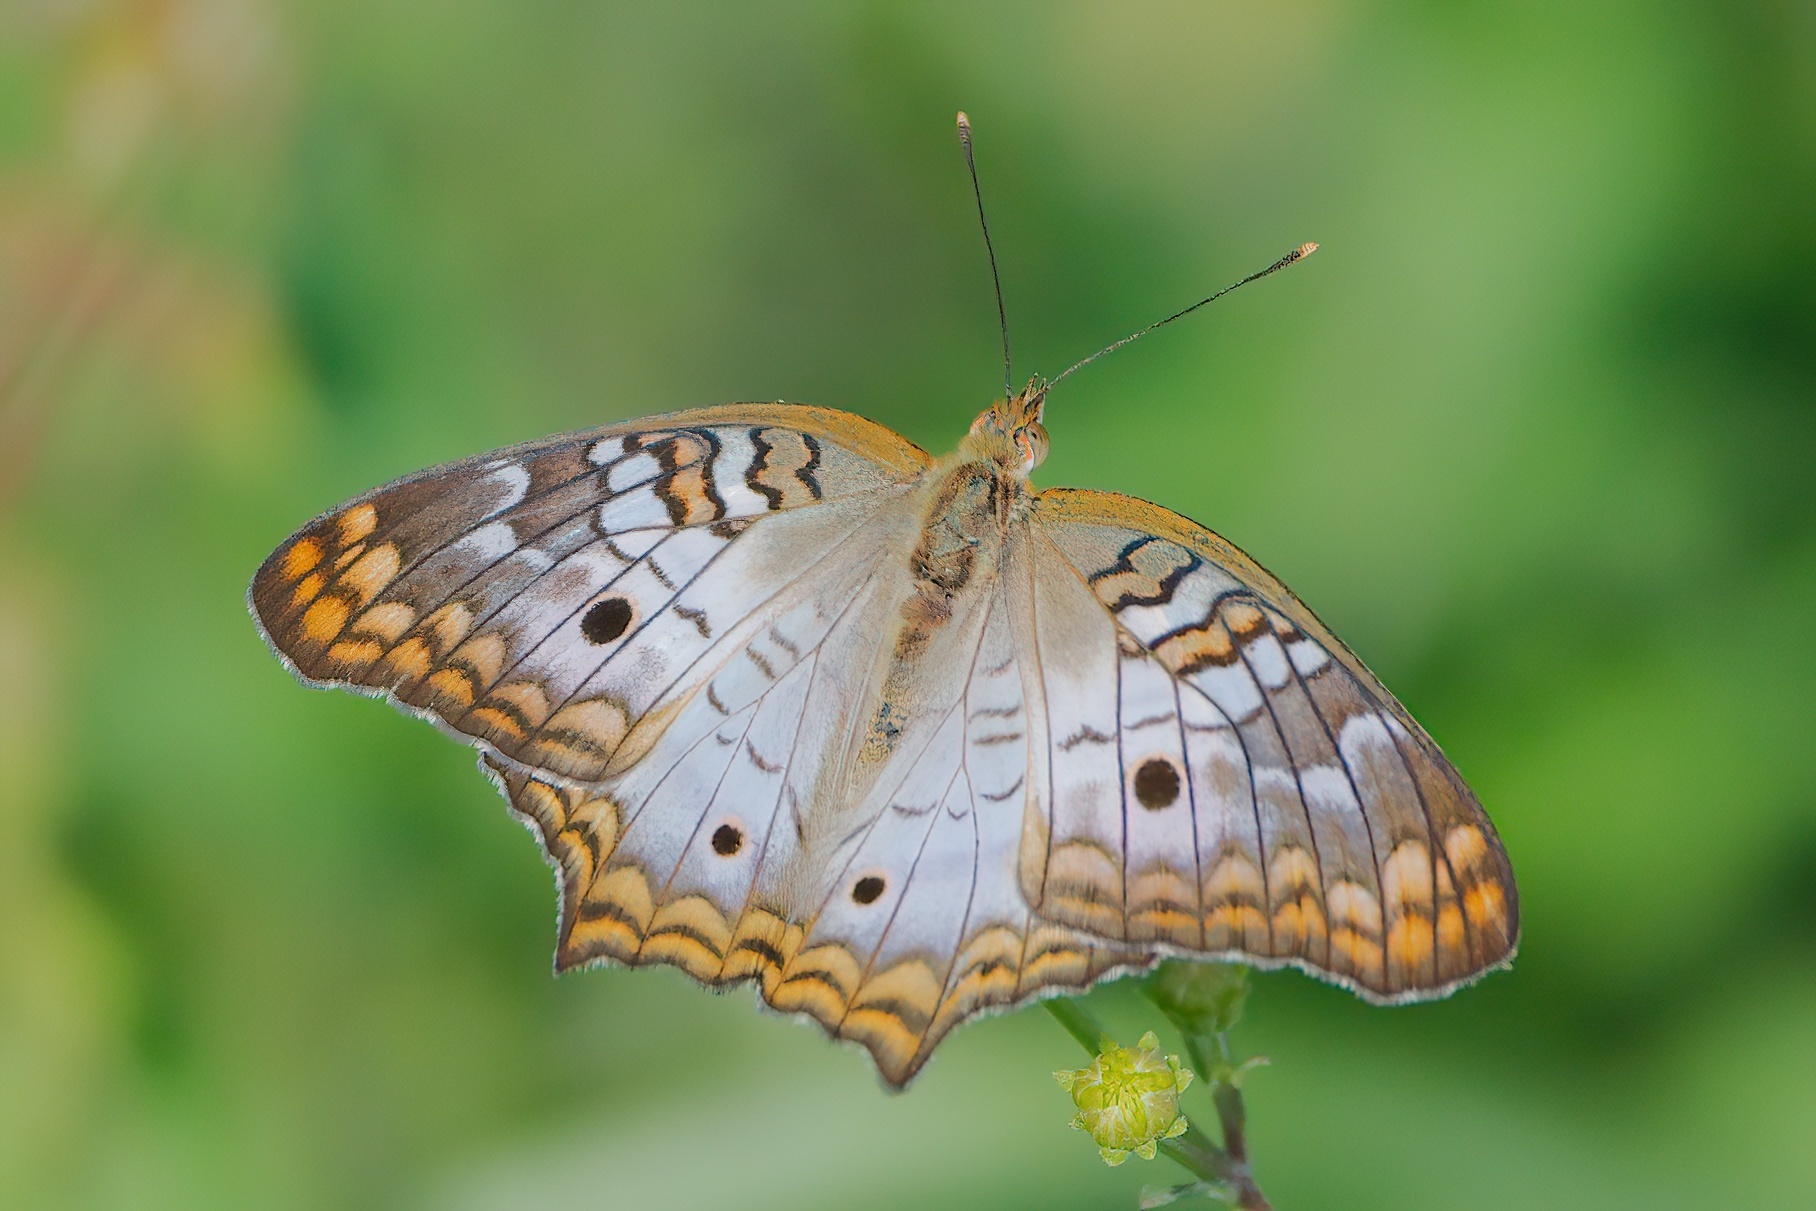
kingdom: Animalia
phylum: Arthropoda
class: Insecta
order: Lepidoptera
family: Nymphalidae
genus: Anartia
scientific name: Anartia jatrophae
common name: White peacock
